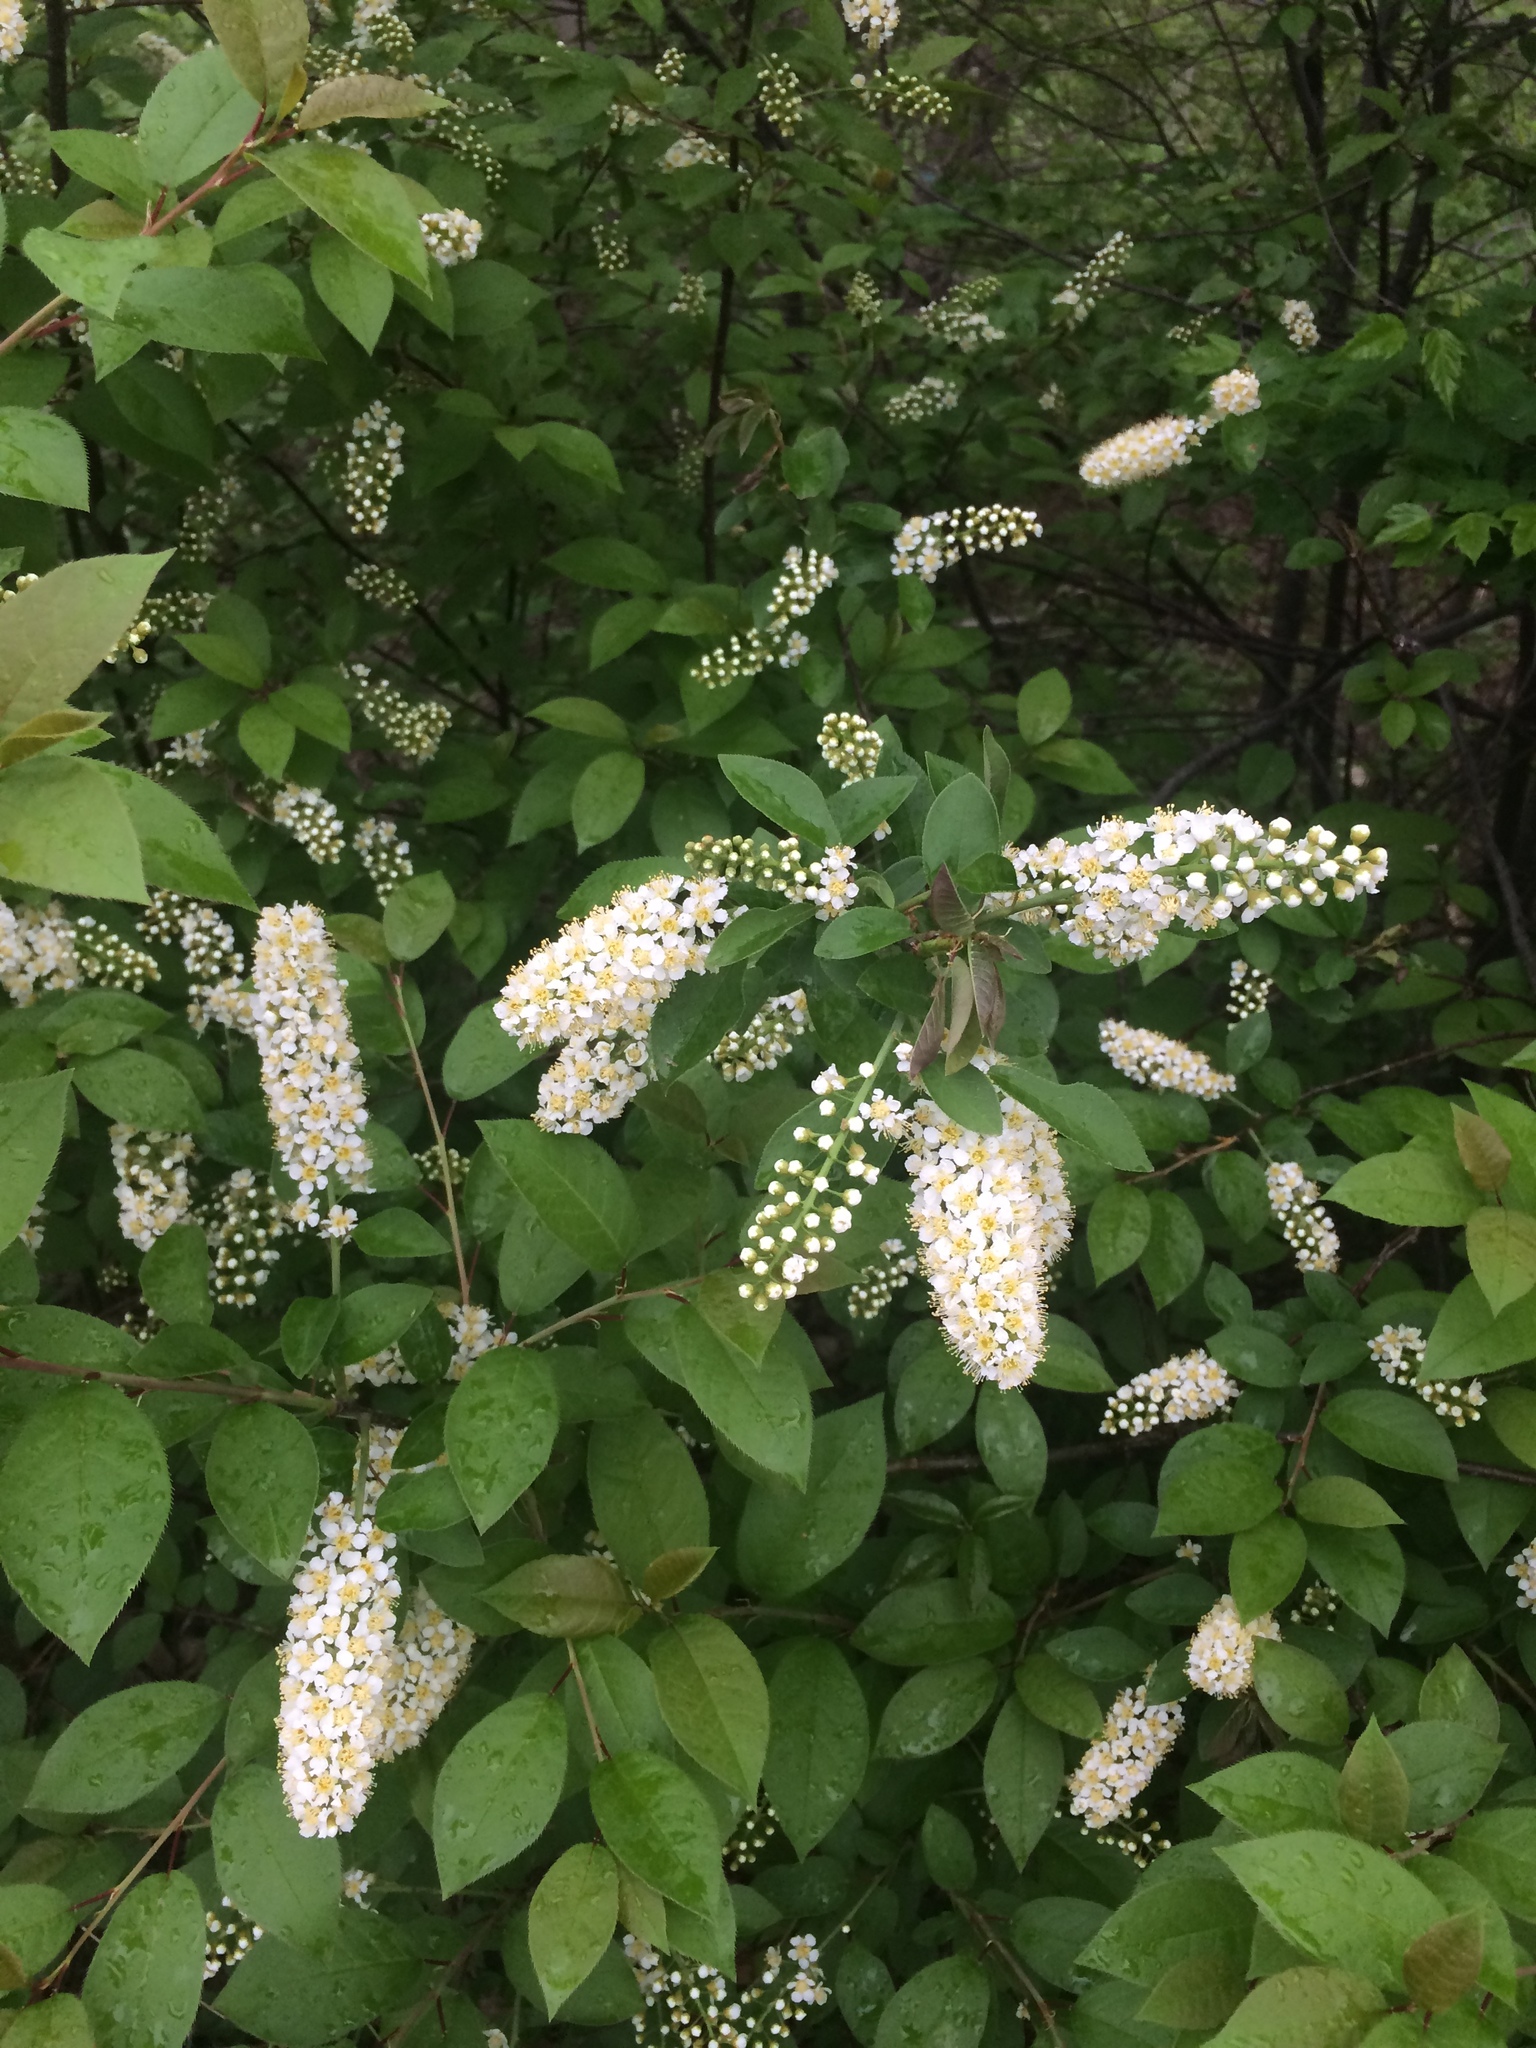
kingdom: Plantae
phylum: Tracheophyta
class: Magnoliopsida
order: Rosales
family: Rosaceae
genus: Prunus
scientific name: Prunus virginiana
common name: Chokecherry
